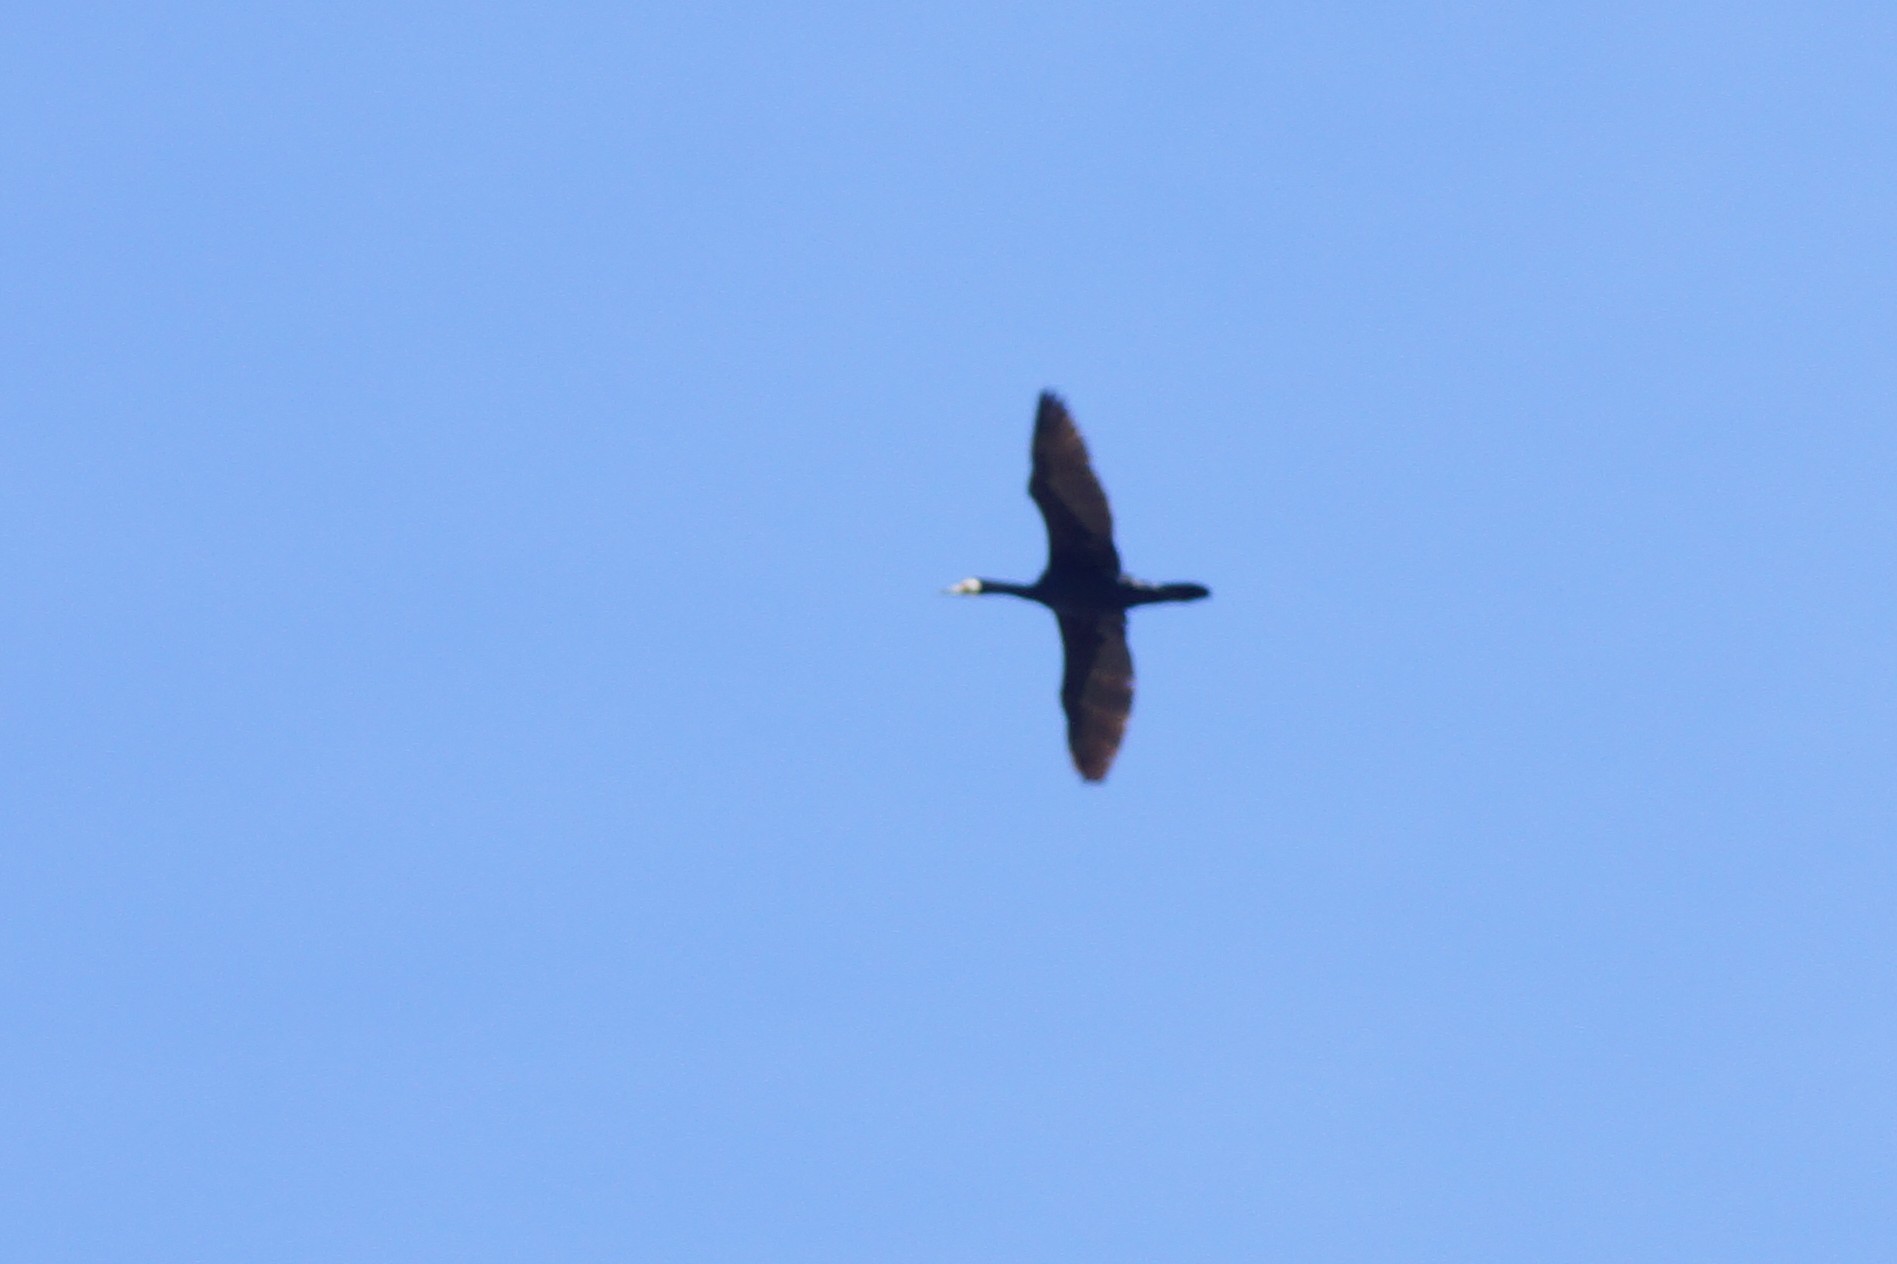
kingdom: Animalia
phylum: Chordata
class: Aves
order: Suliformes
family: Phalacrocoracidae
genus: Phalacrocorax
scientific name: Phalacrocorax carbo
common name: Great cormorant
